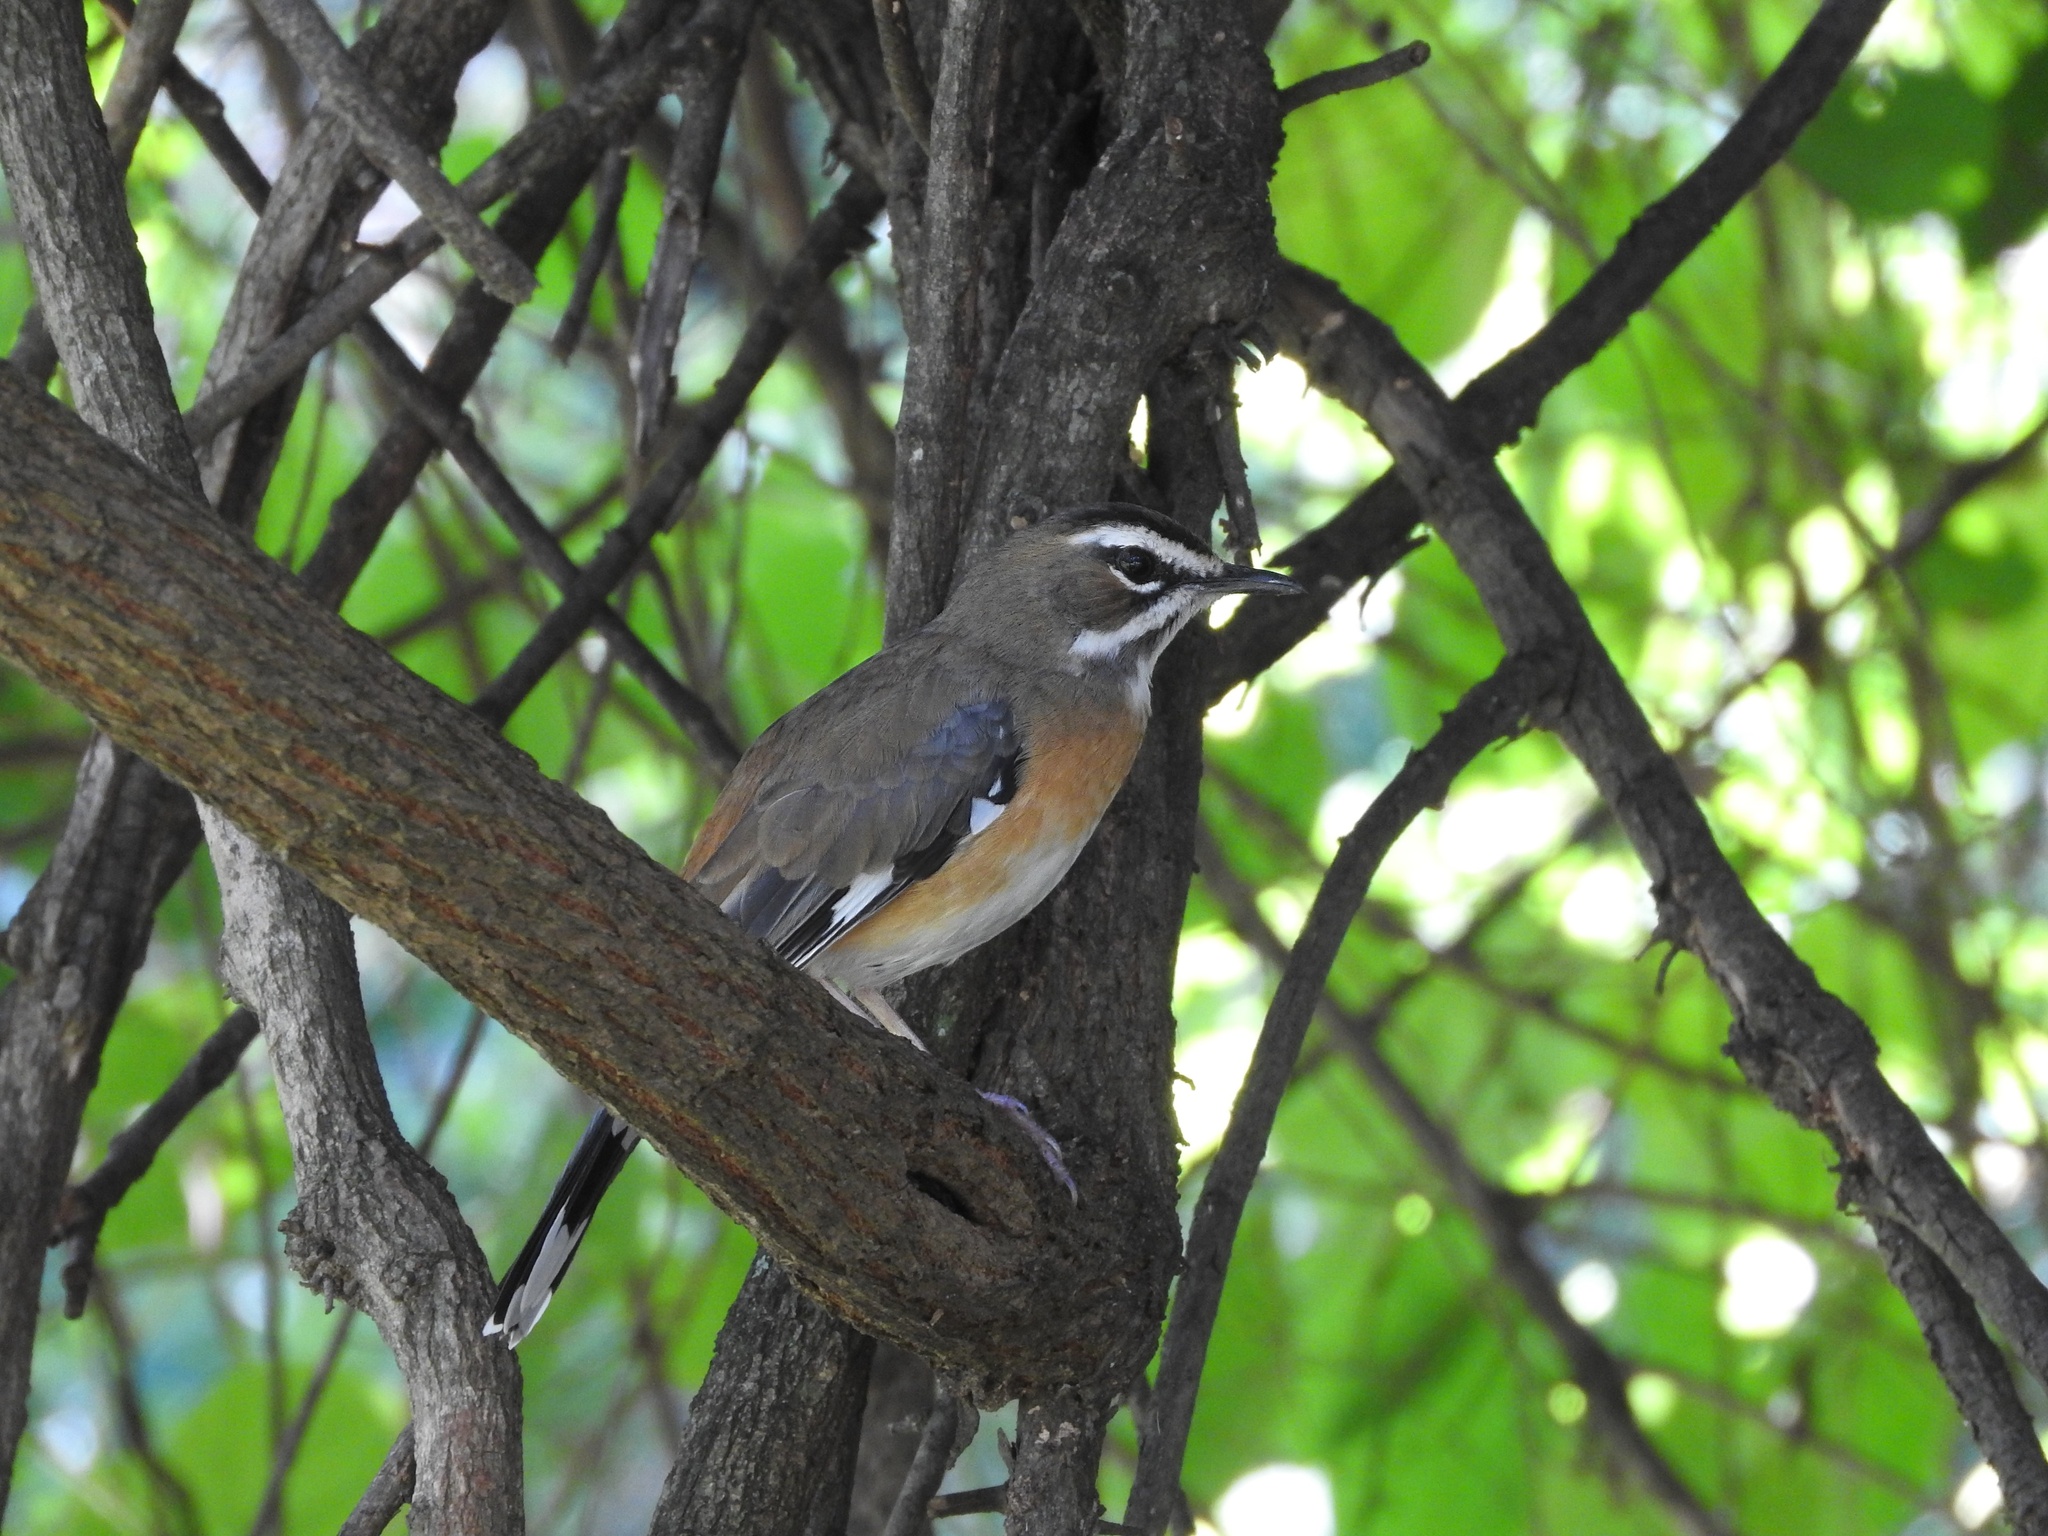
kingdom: Animalia
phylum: Chordata
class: Aves
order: Passeriformes
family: Muscicapidae
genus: Erythropygia
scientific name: Erythropygia quadrivirgata
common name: Bearded scrub robin
